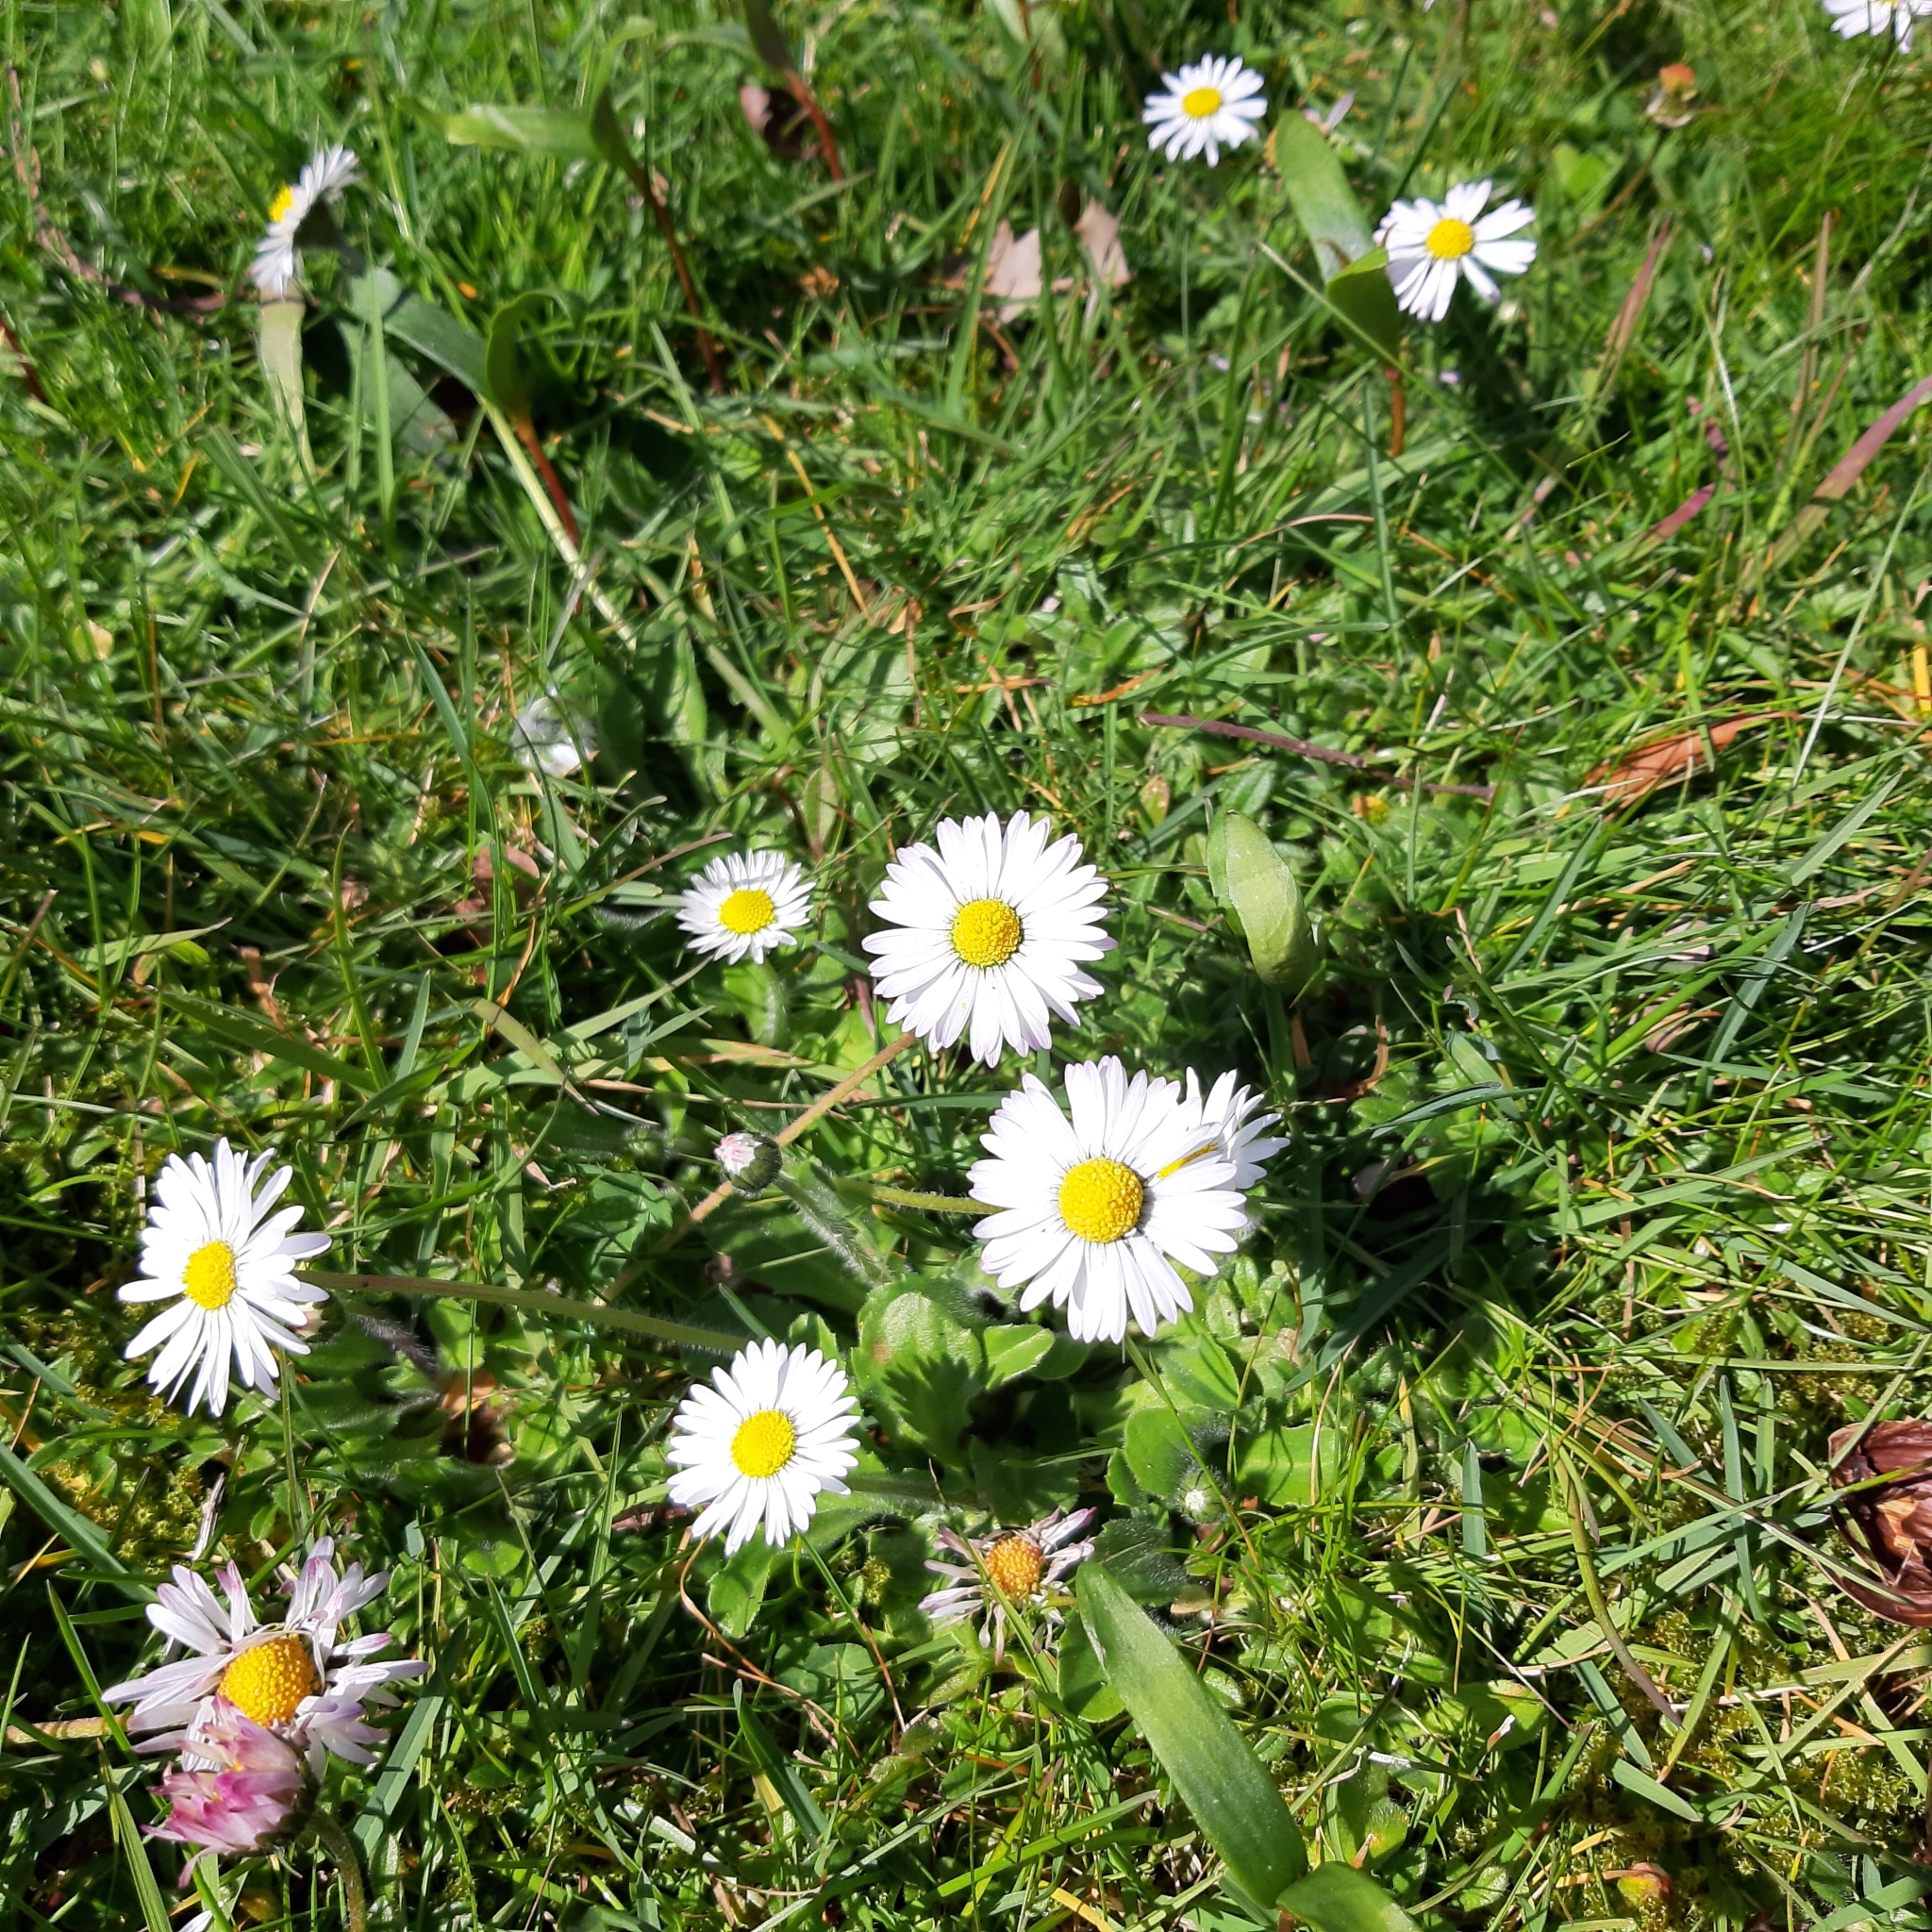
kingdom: Plantae
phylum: Tracheophyta
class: Magnoliopsida
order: Asterales
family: Asteraceae
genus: Bellis
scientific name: Bellis perennis
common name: Lawndaisy
